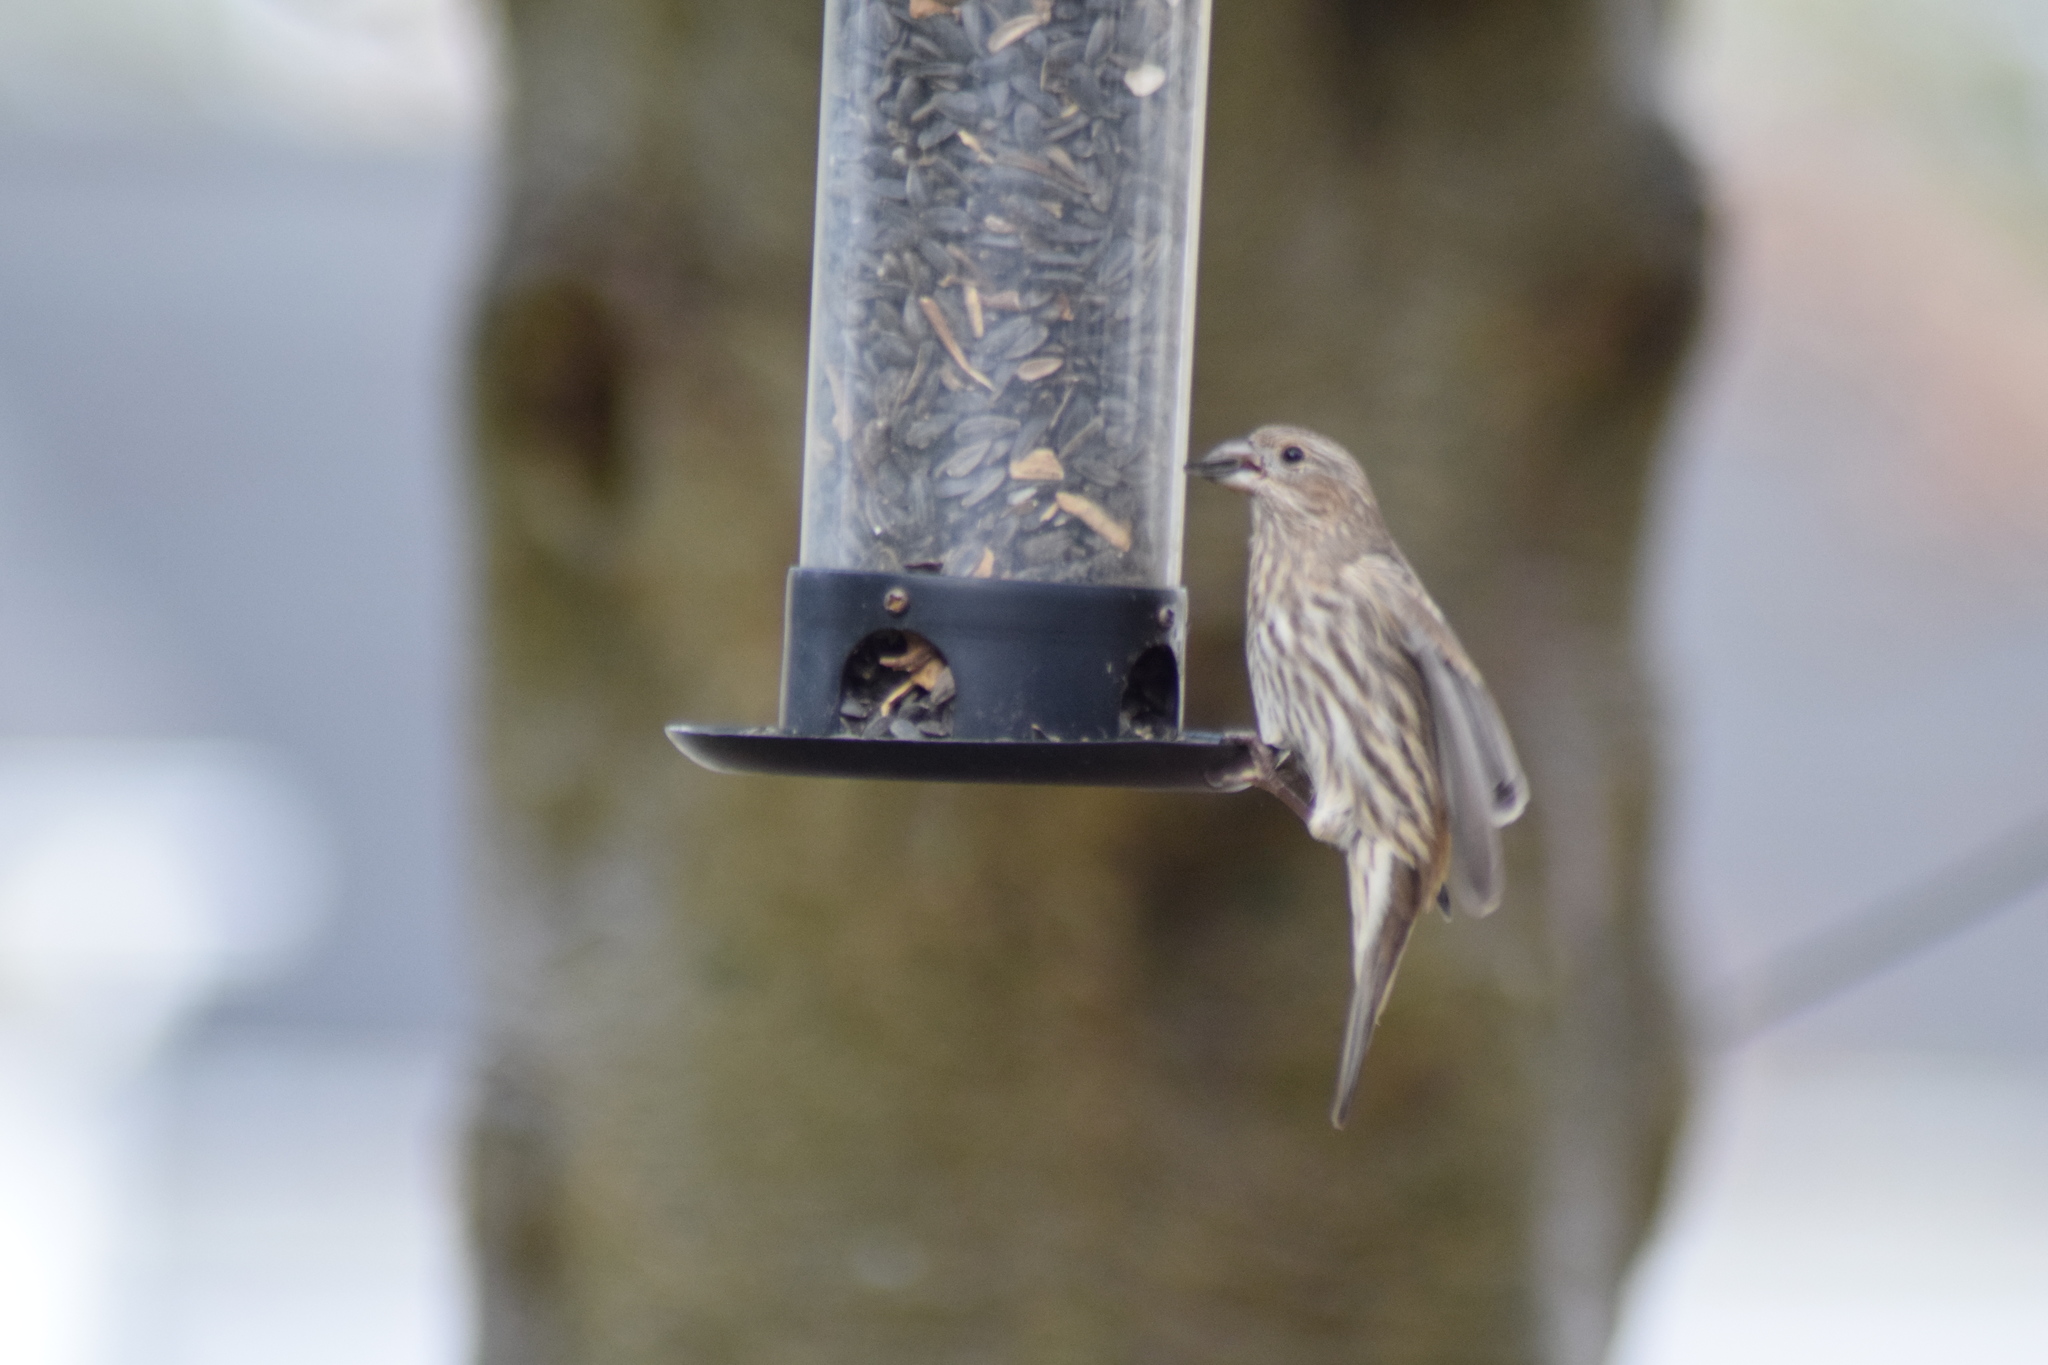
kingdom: Animalia
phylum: Chordata
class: Aves
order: Passeriformes
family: Fringillidae
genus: Haemorhous
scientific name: Haemorhous mexicanus
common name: House finch
